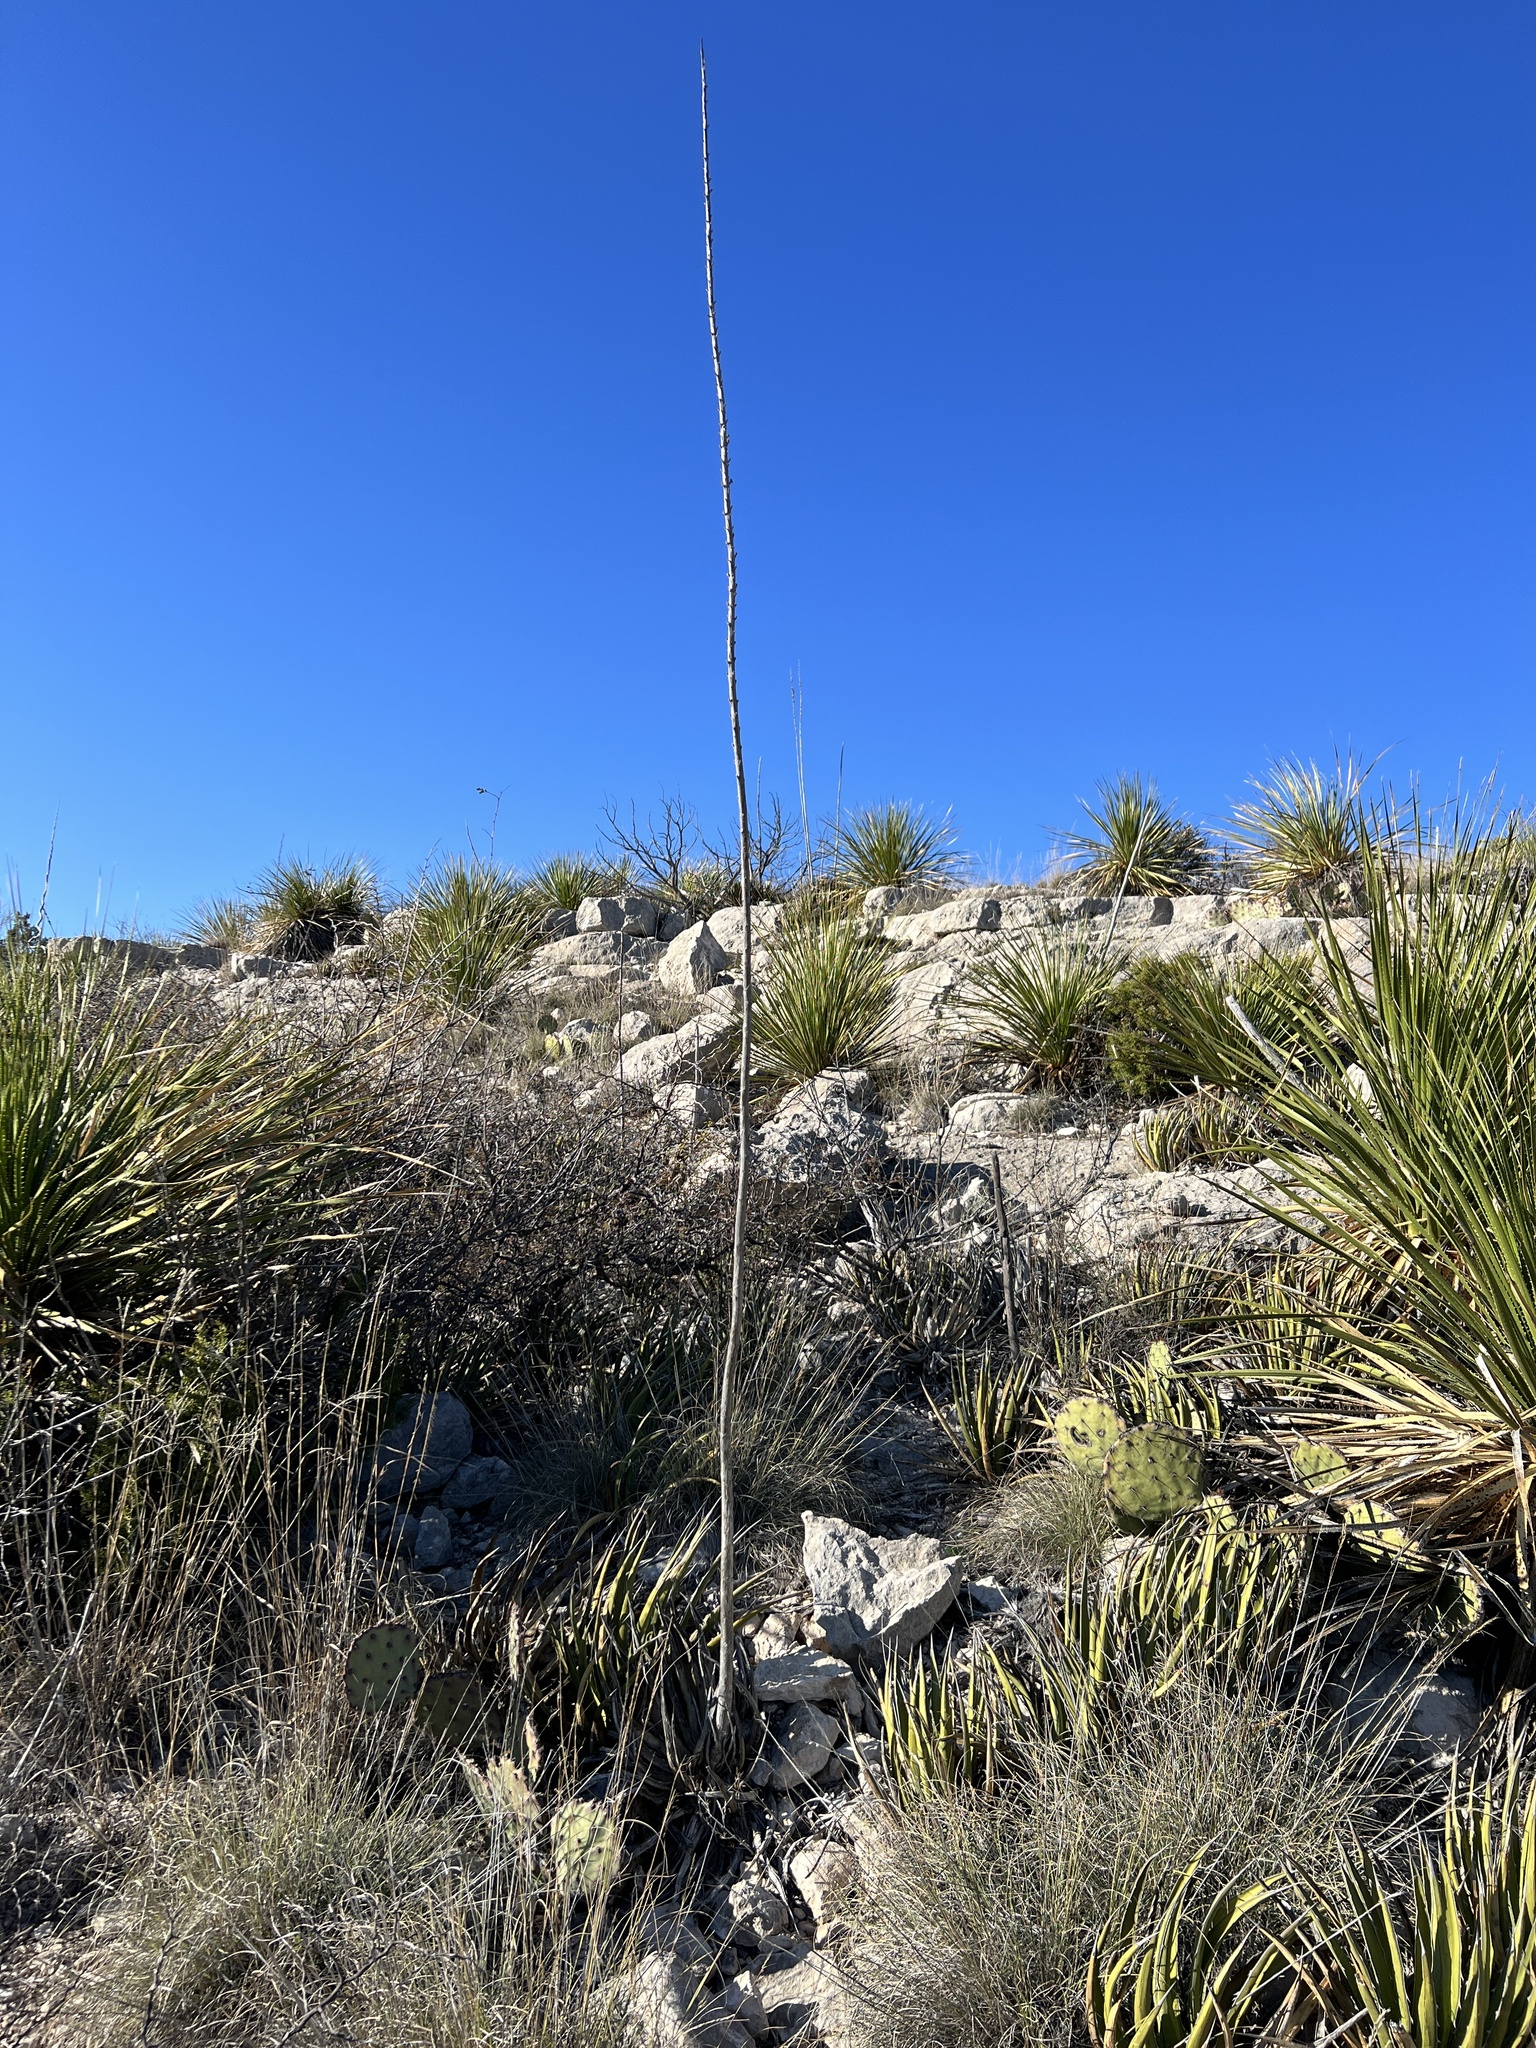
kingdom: Plantae
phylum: Tracheophyta
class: Liliopsida
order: Asparagales
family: Asparagaceae
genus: Agave
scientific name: Agave lechuguilla
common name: Lecheguilla agave
